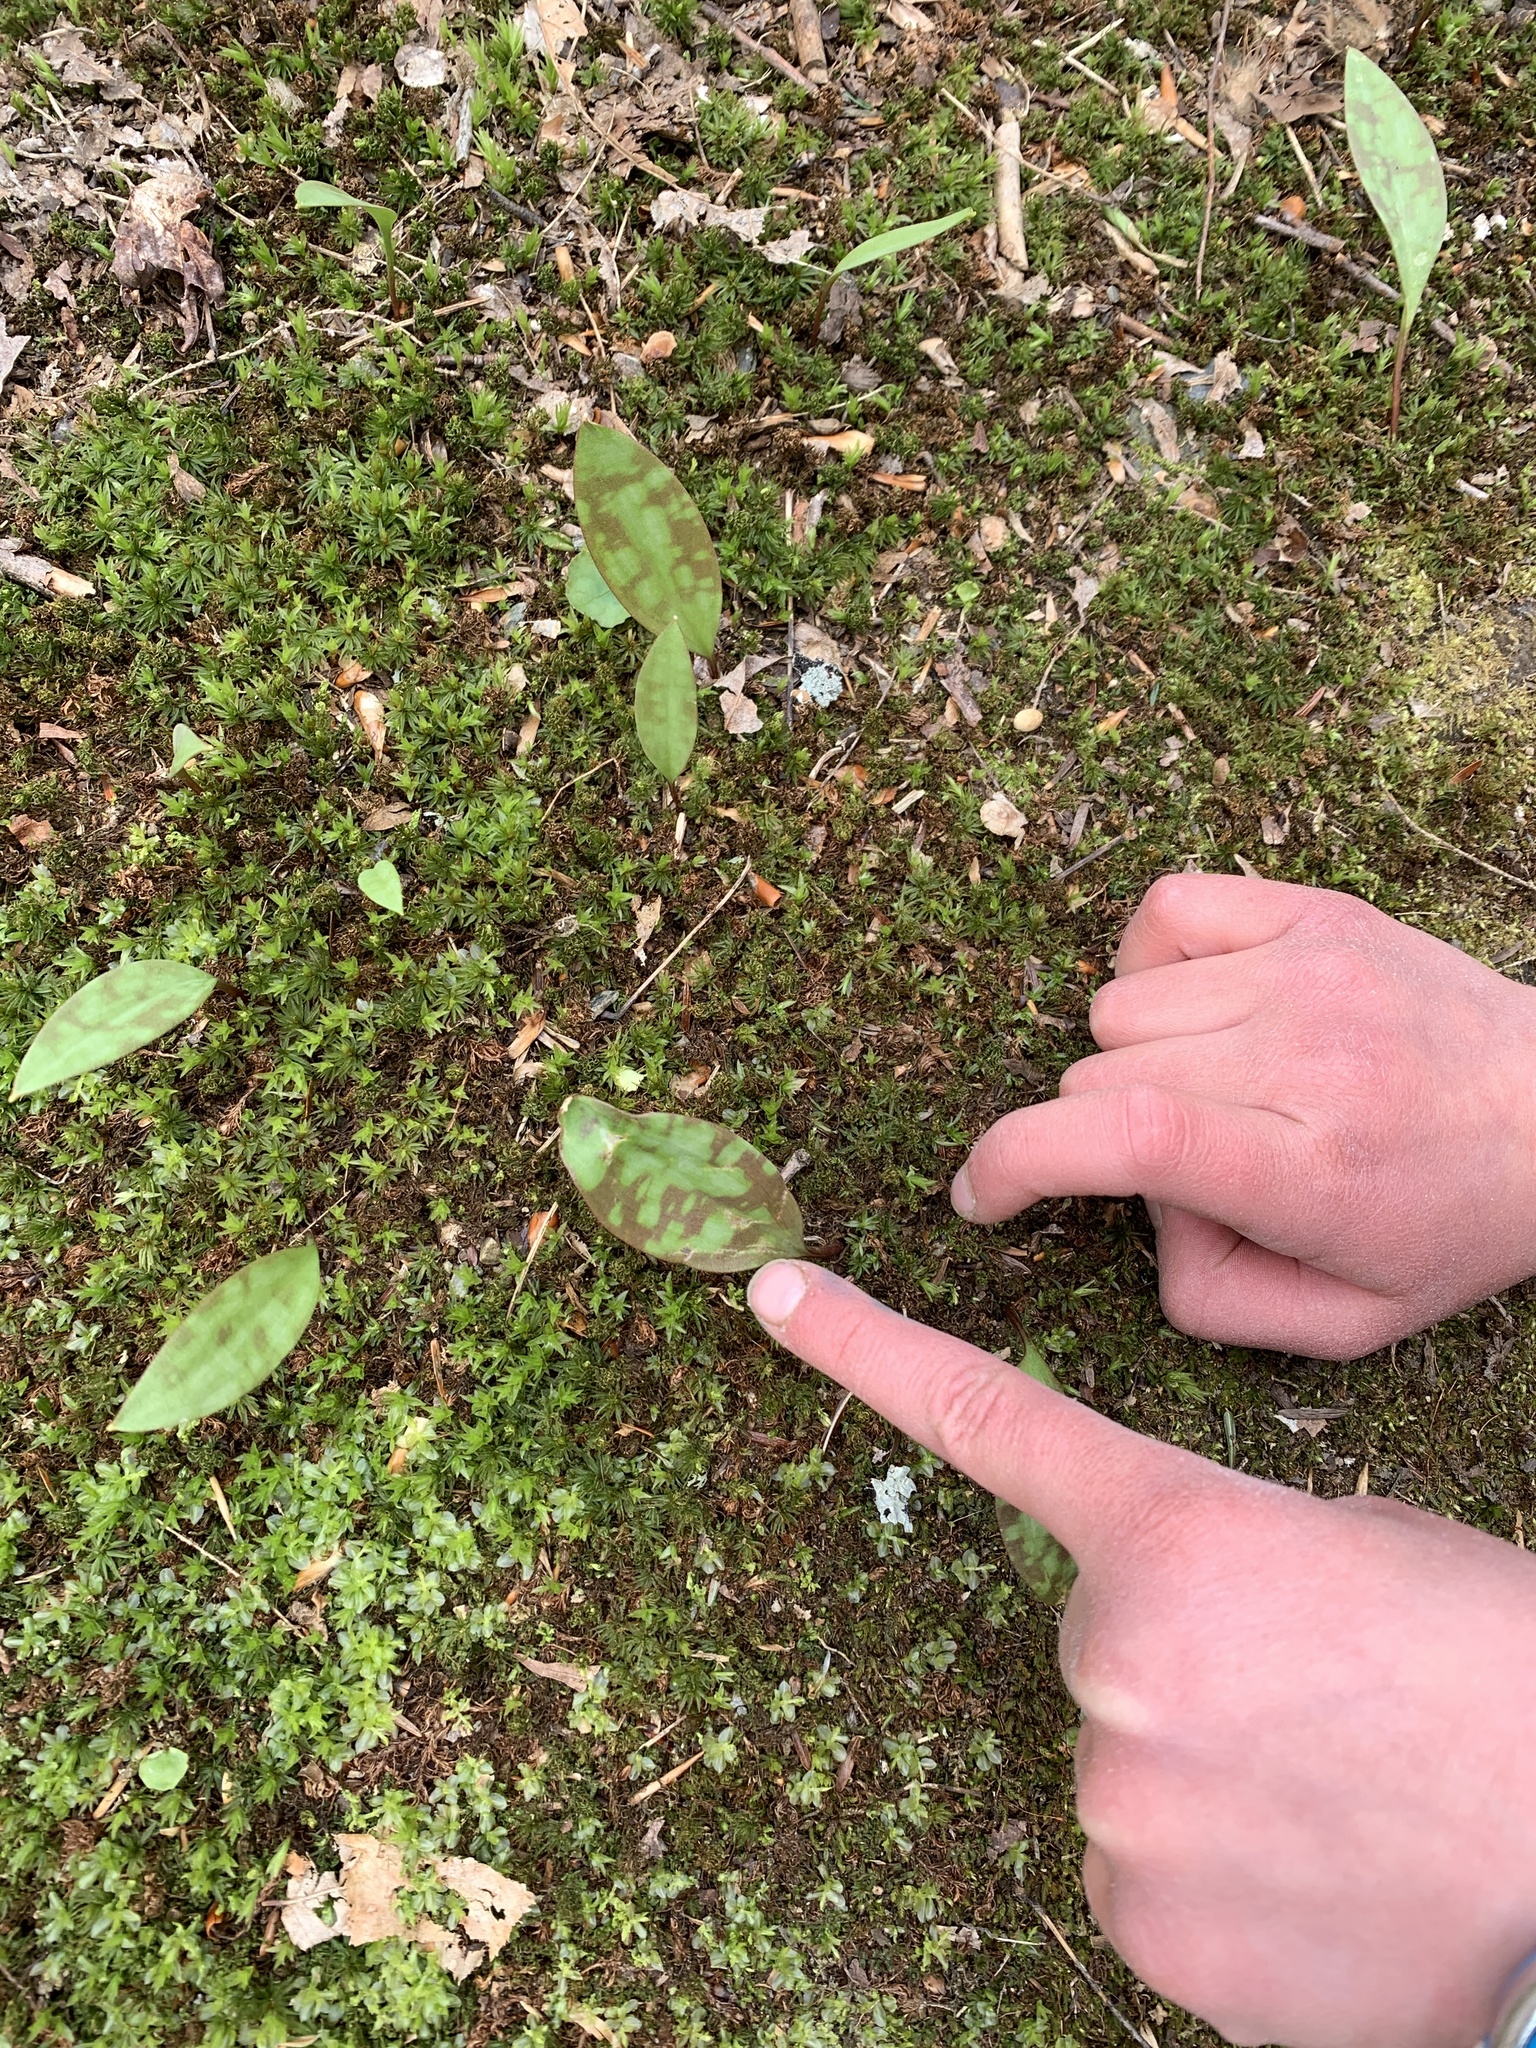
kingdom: Plantae
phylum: Tracheophyta
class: Liliopsida
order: Liliales
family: Liliaceae
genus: Erythronium
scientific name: Erythronium americanum
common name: Yellow adder's-tongue
